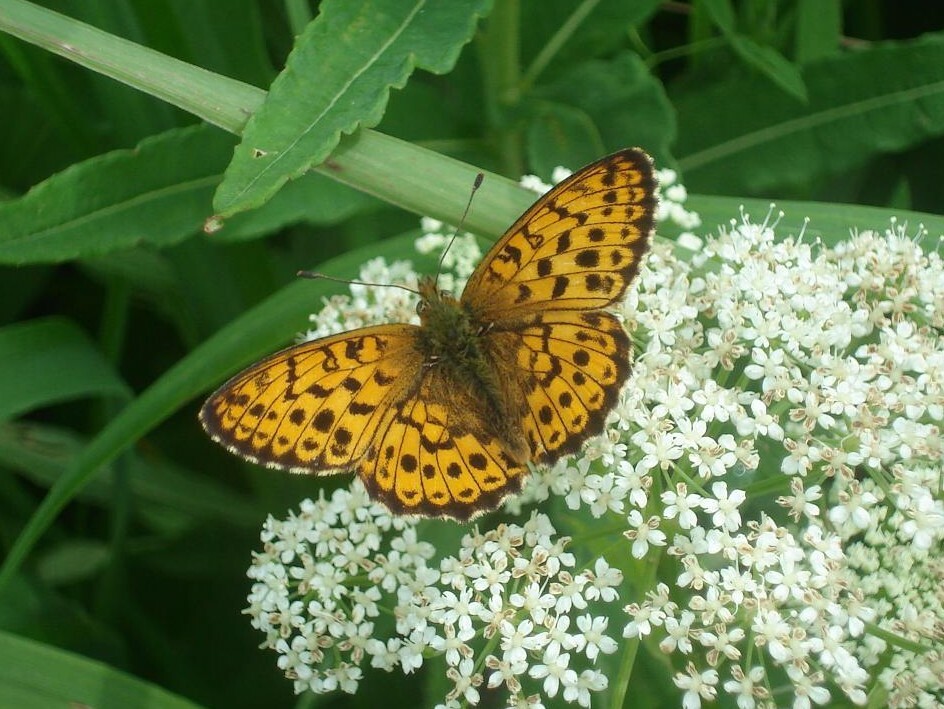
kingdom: Animalia
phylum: Arthropoda
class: Insecta
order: Lepidoptera
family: Nymphalidae
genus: Brenthis
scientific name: Brenthis ino
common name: Lesser marbled fritillary
